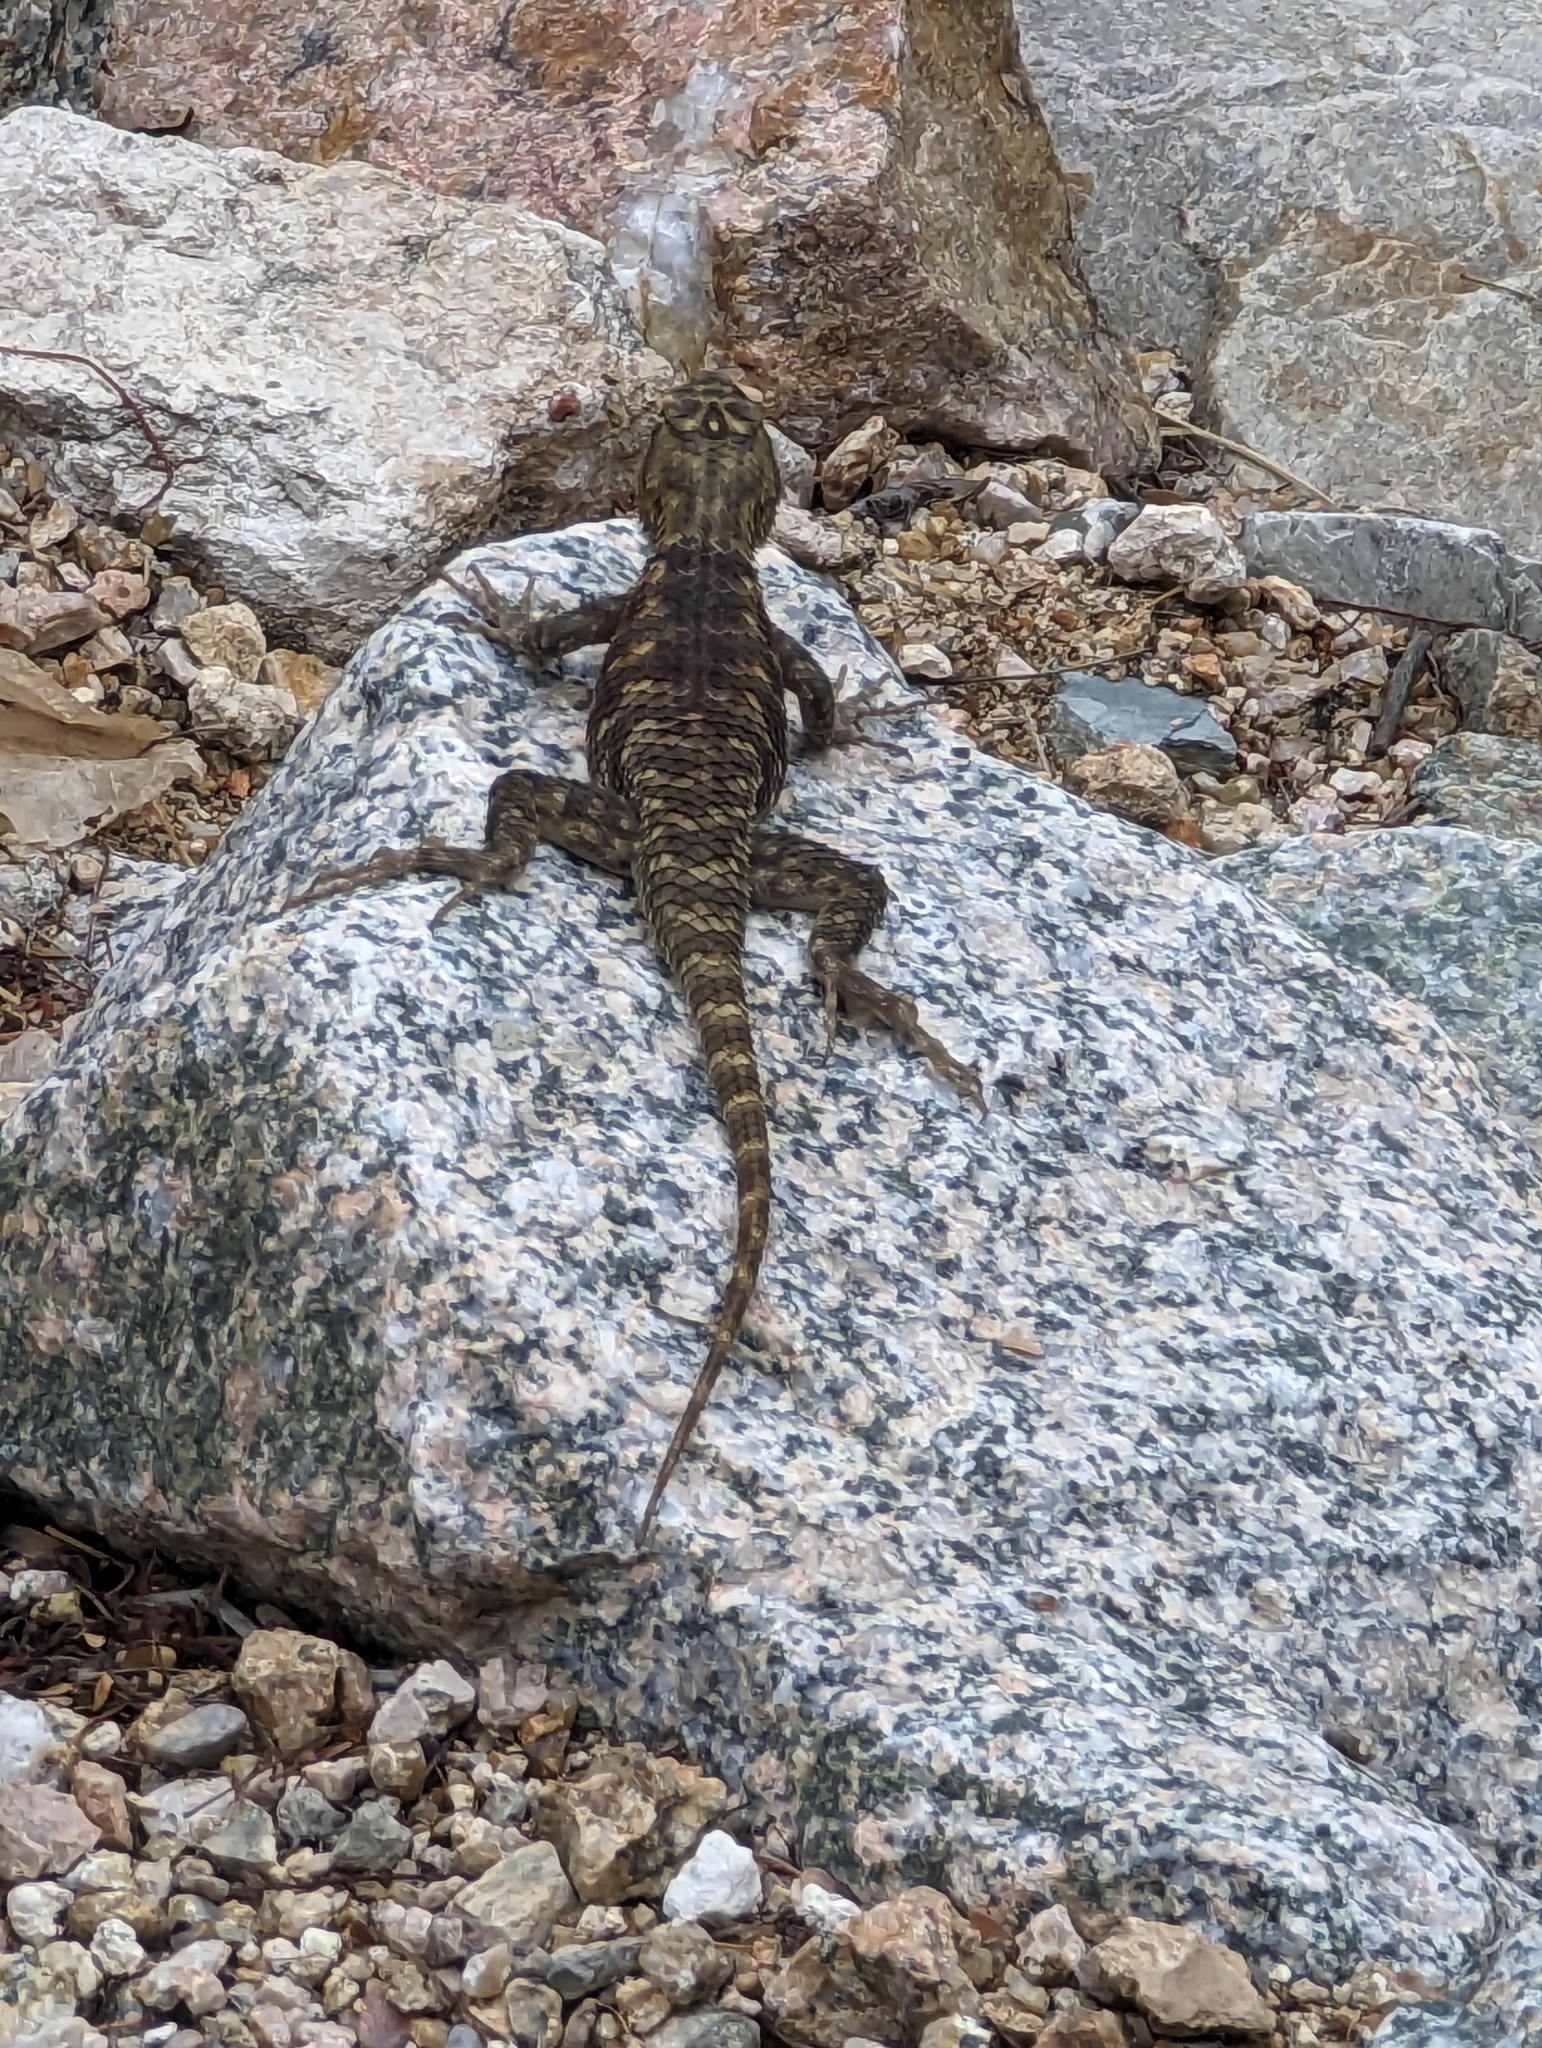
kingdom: Animalia
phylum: Chordata
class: Squamata
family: Phrynosomatidae
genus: Sceloporus
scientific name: Sceloporus magister
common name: Desert spiny lizard
